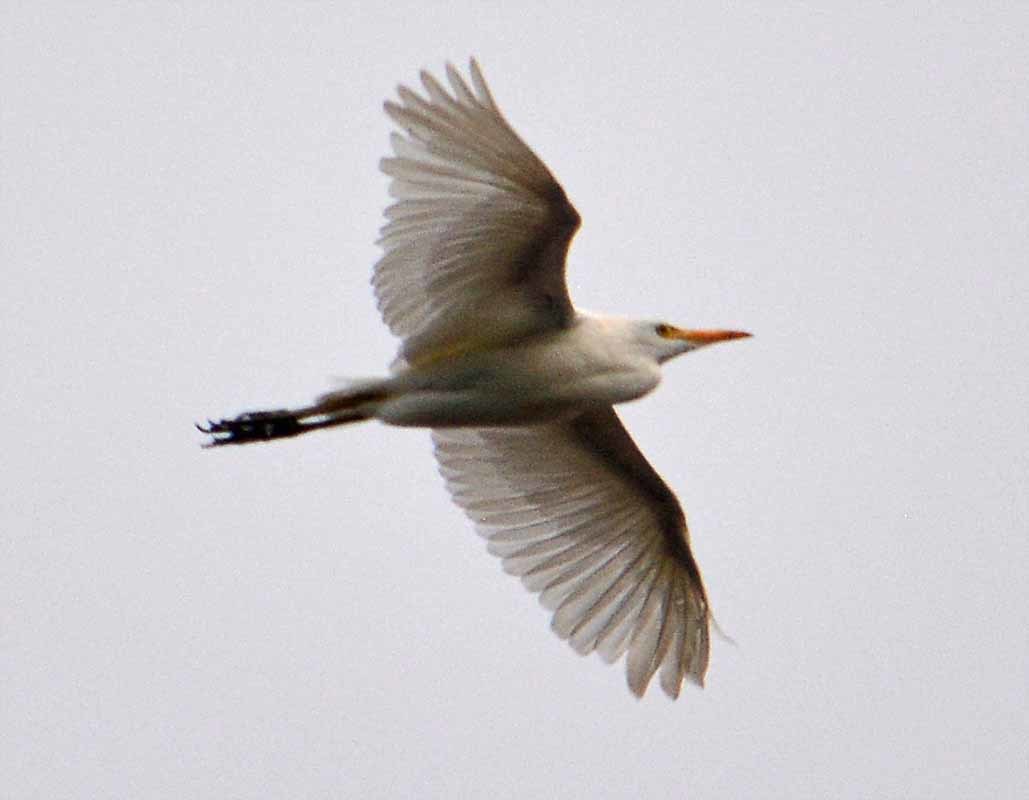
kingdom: Animalia
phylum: Chordata
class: Aves
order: Pelecaniformes
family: Ardeidae
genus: Bubulcus
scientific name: Bubulcus ibis
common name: Cattle egret
